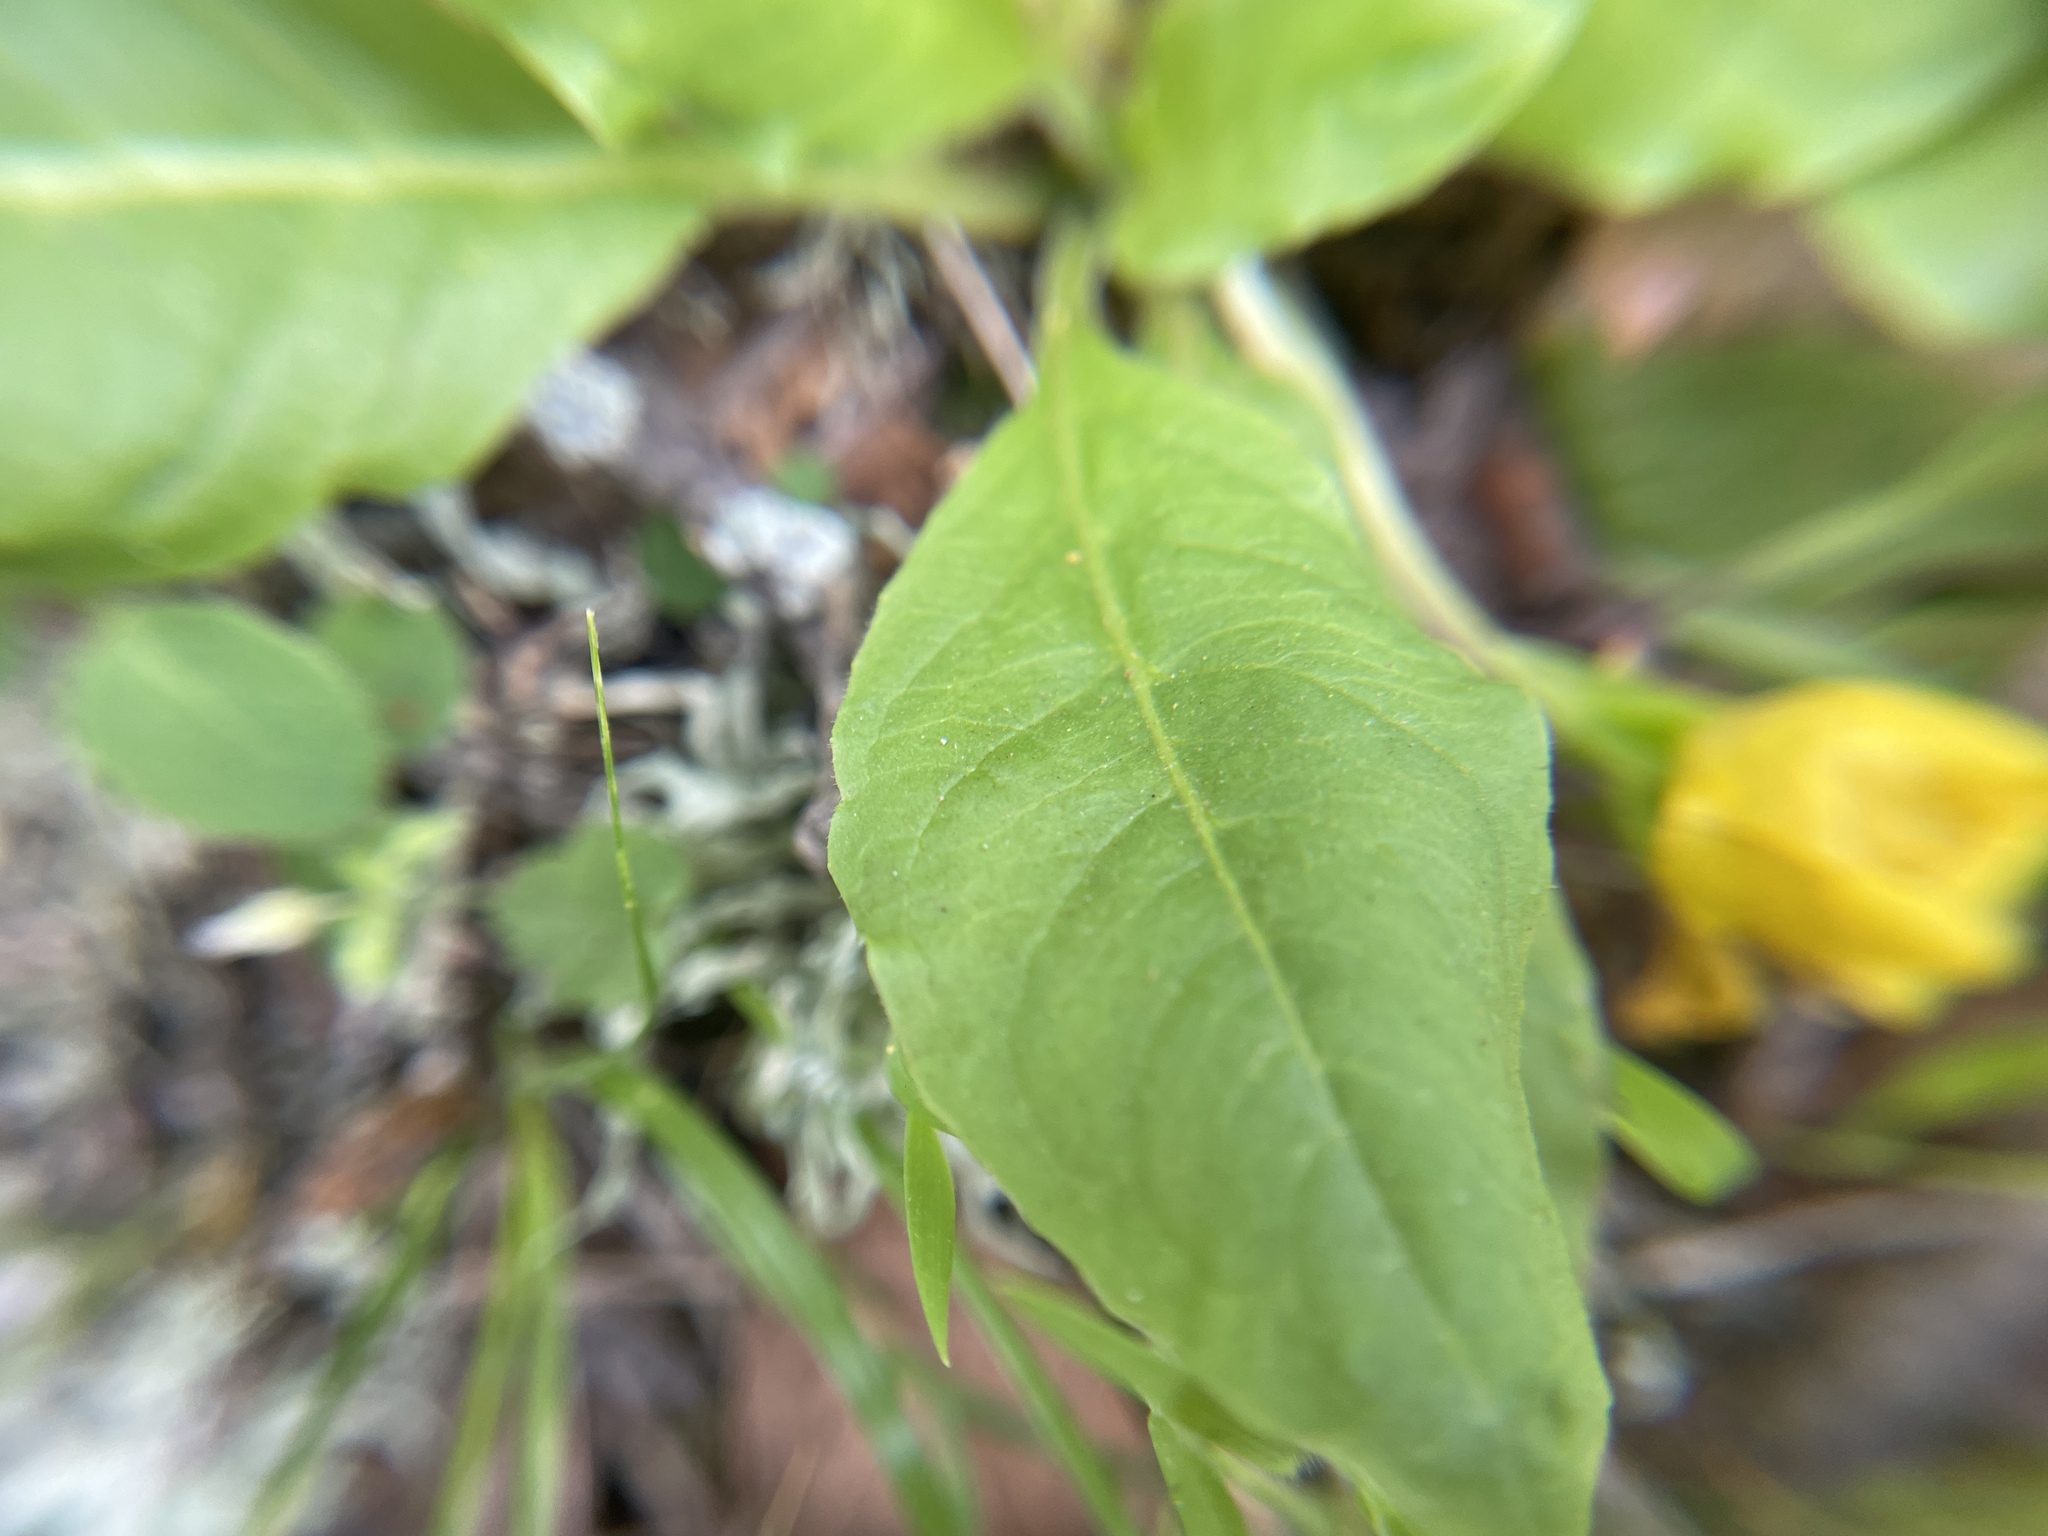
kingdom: Plantae
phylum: Tracheophyta
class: Magnoliopsida
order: Myrtales
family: Onagraceae
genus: Taraxia
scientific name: Taraxia ovata
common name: Goldeneggs
